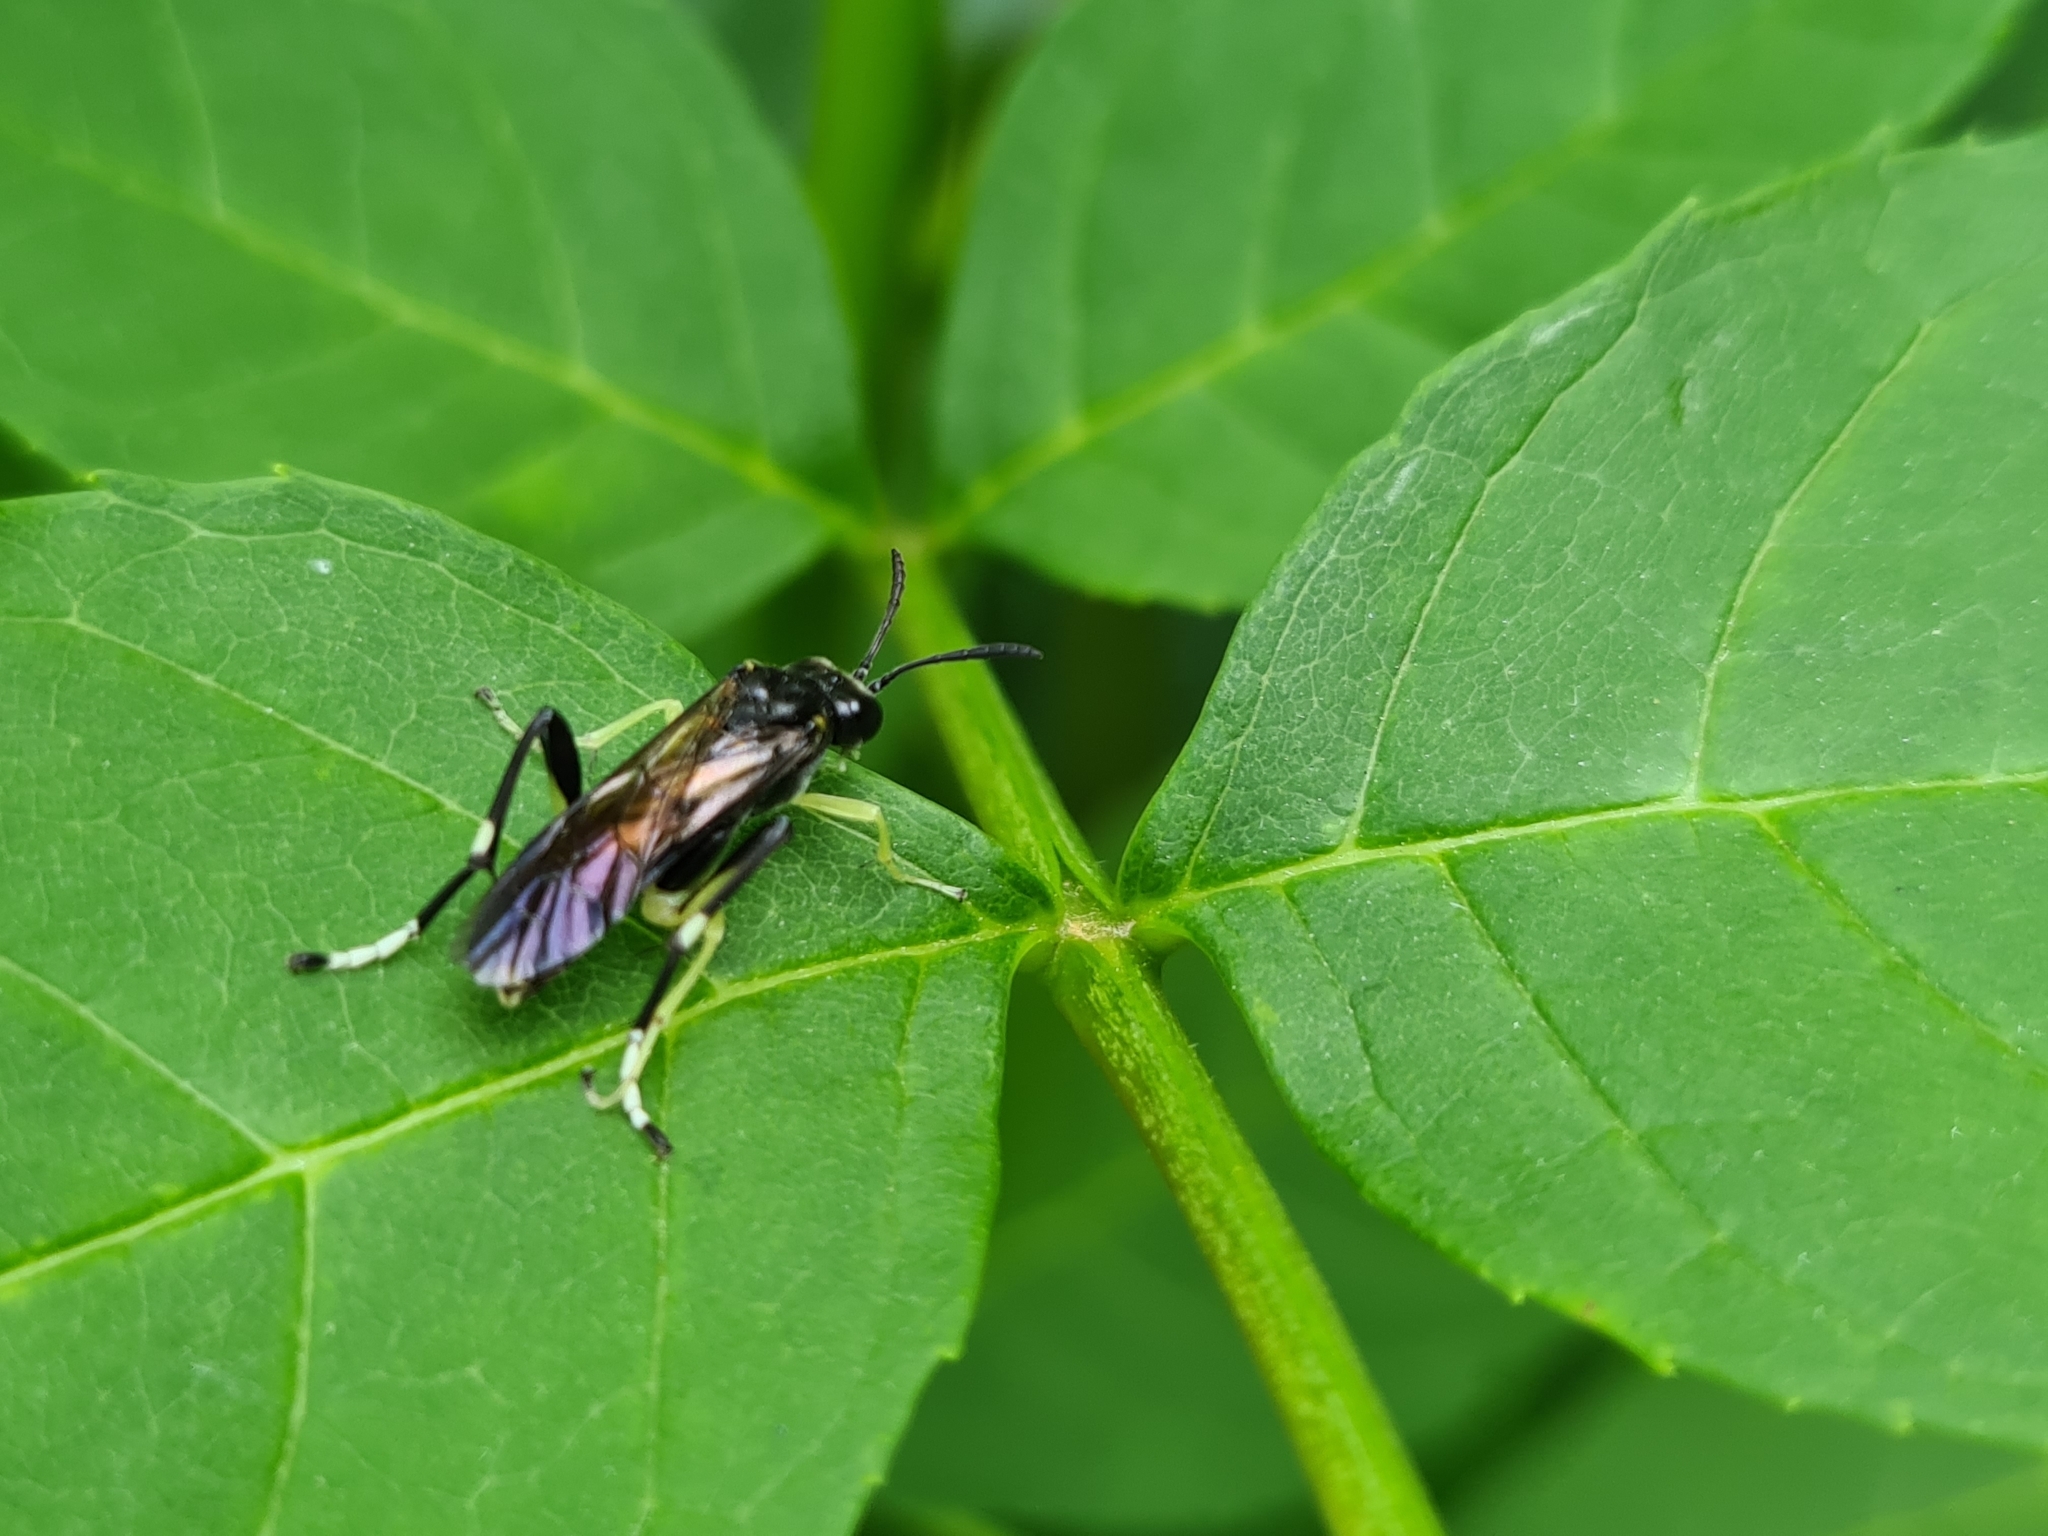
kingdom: Animalia
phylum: Arthropoda
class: Insecta
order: Hymenoptera
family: Tenthredinidae
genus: Macrophya
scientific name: Macrophya montana
